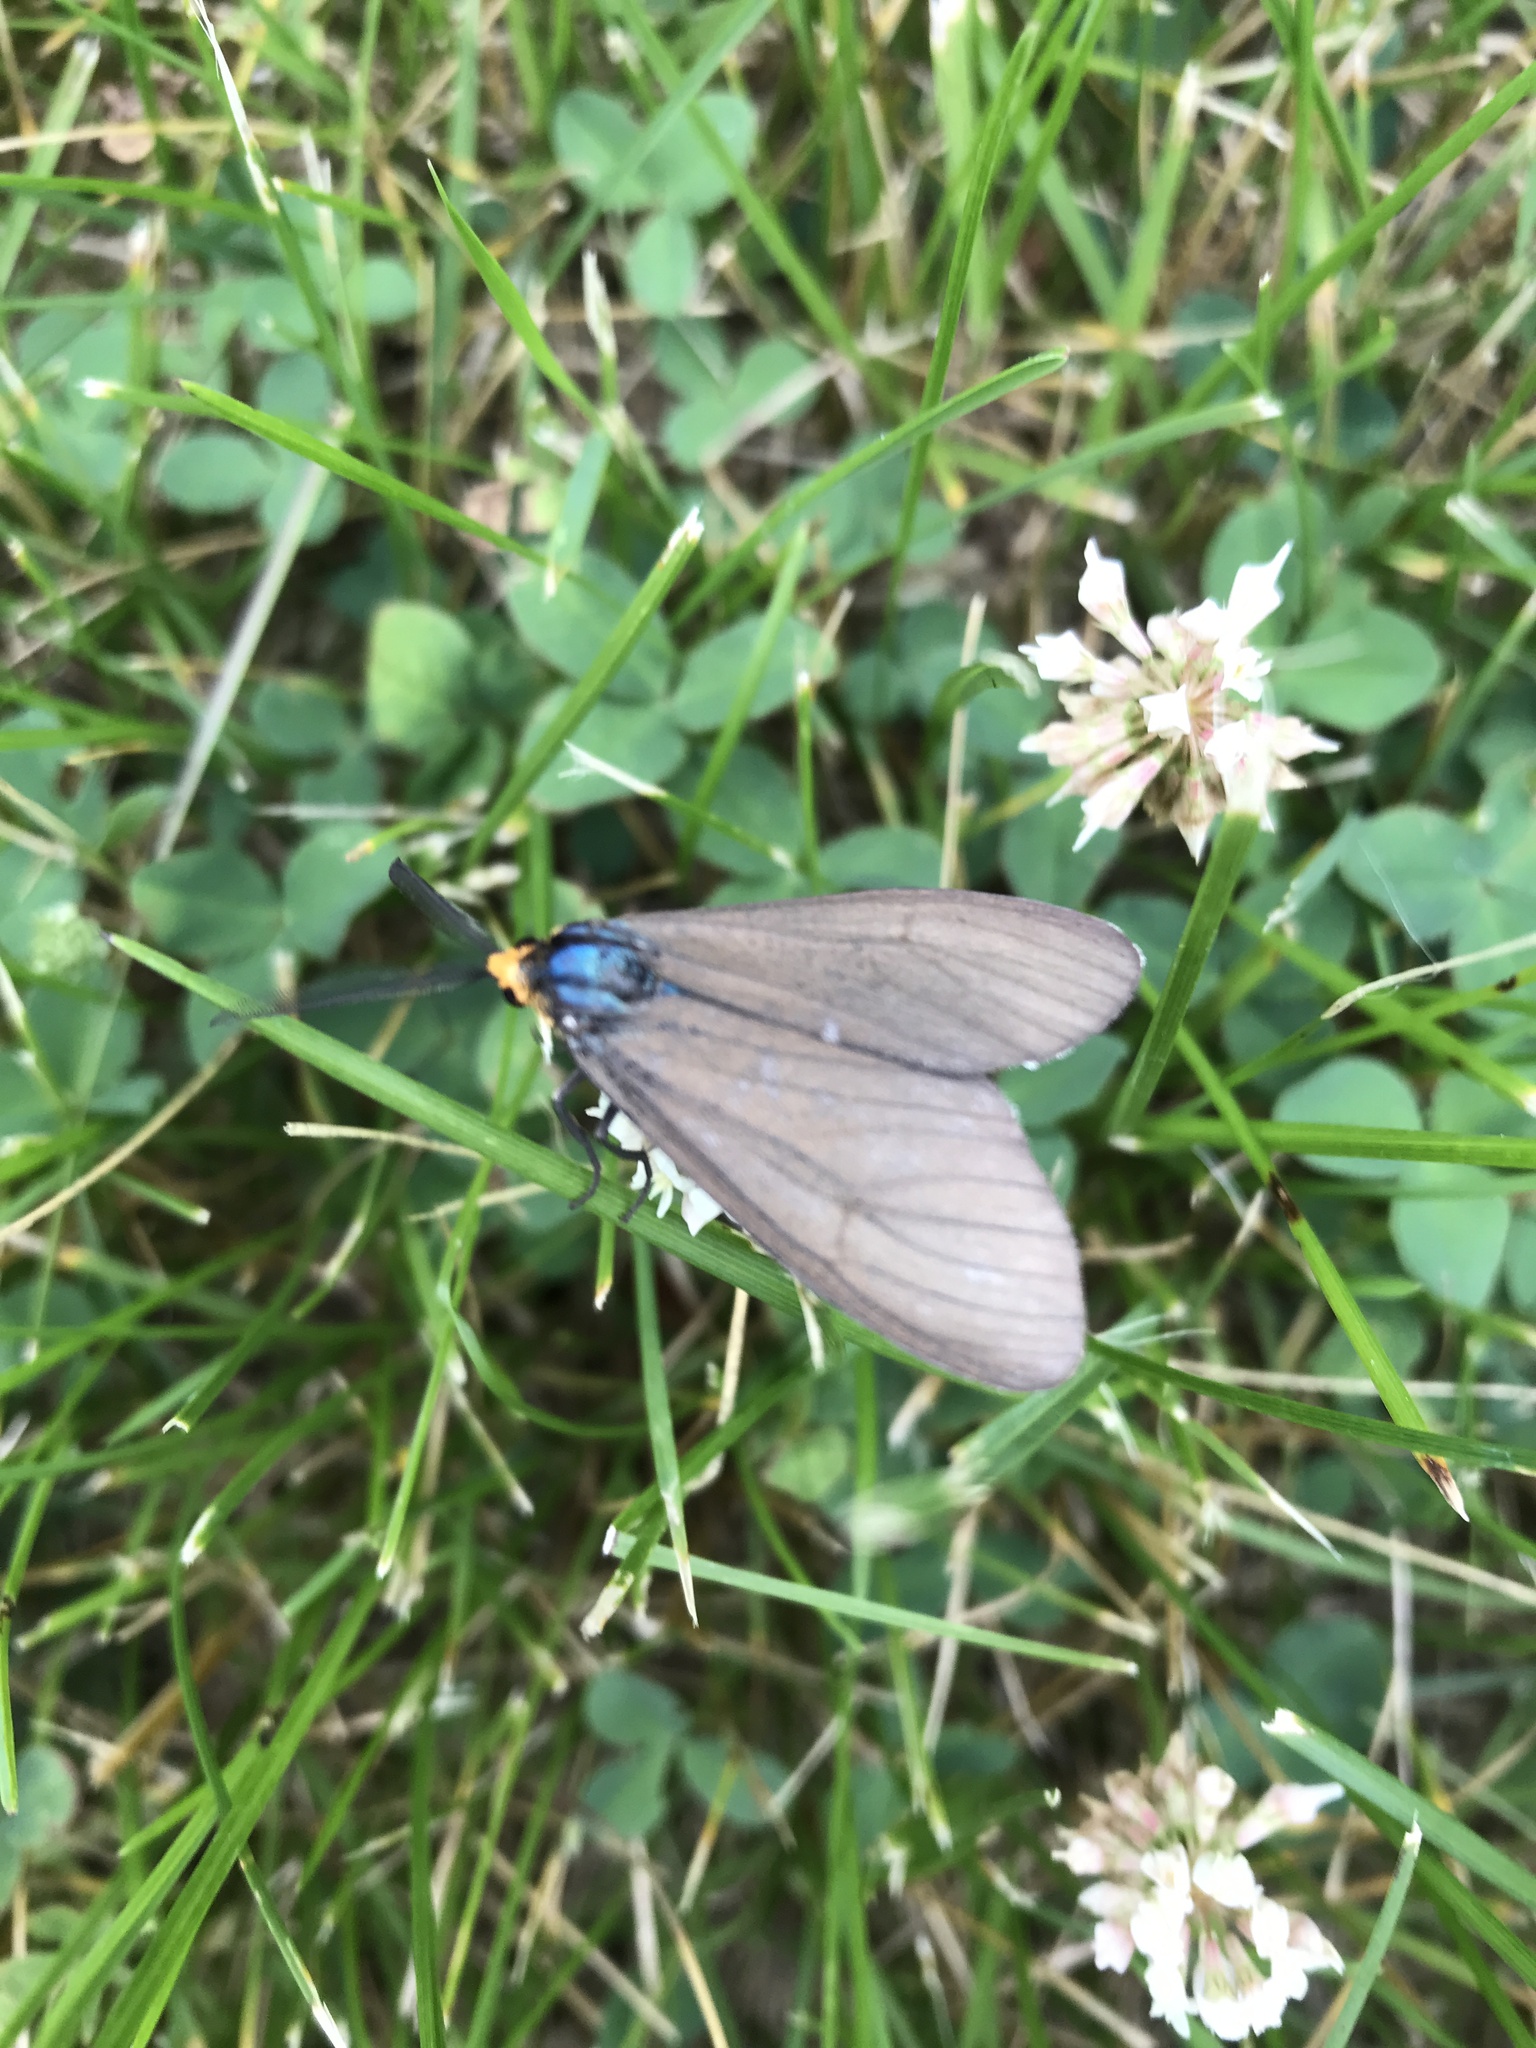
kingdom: Animalia
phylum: Arthropoda
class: Insecta
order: Lepidoptera
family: Erebidae
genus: Ctenucha
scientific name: Ctenucha virginica
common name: Virginia ctenucha moth
